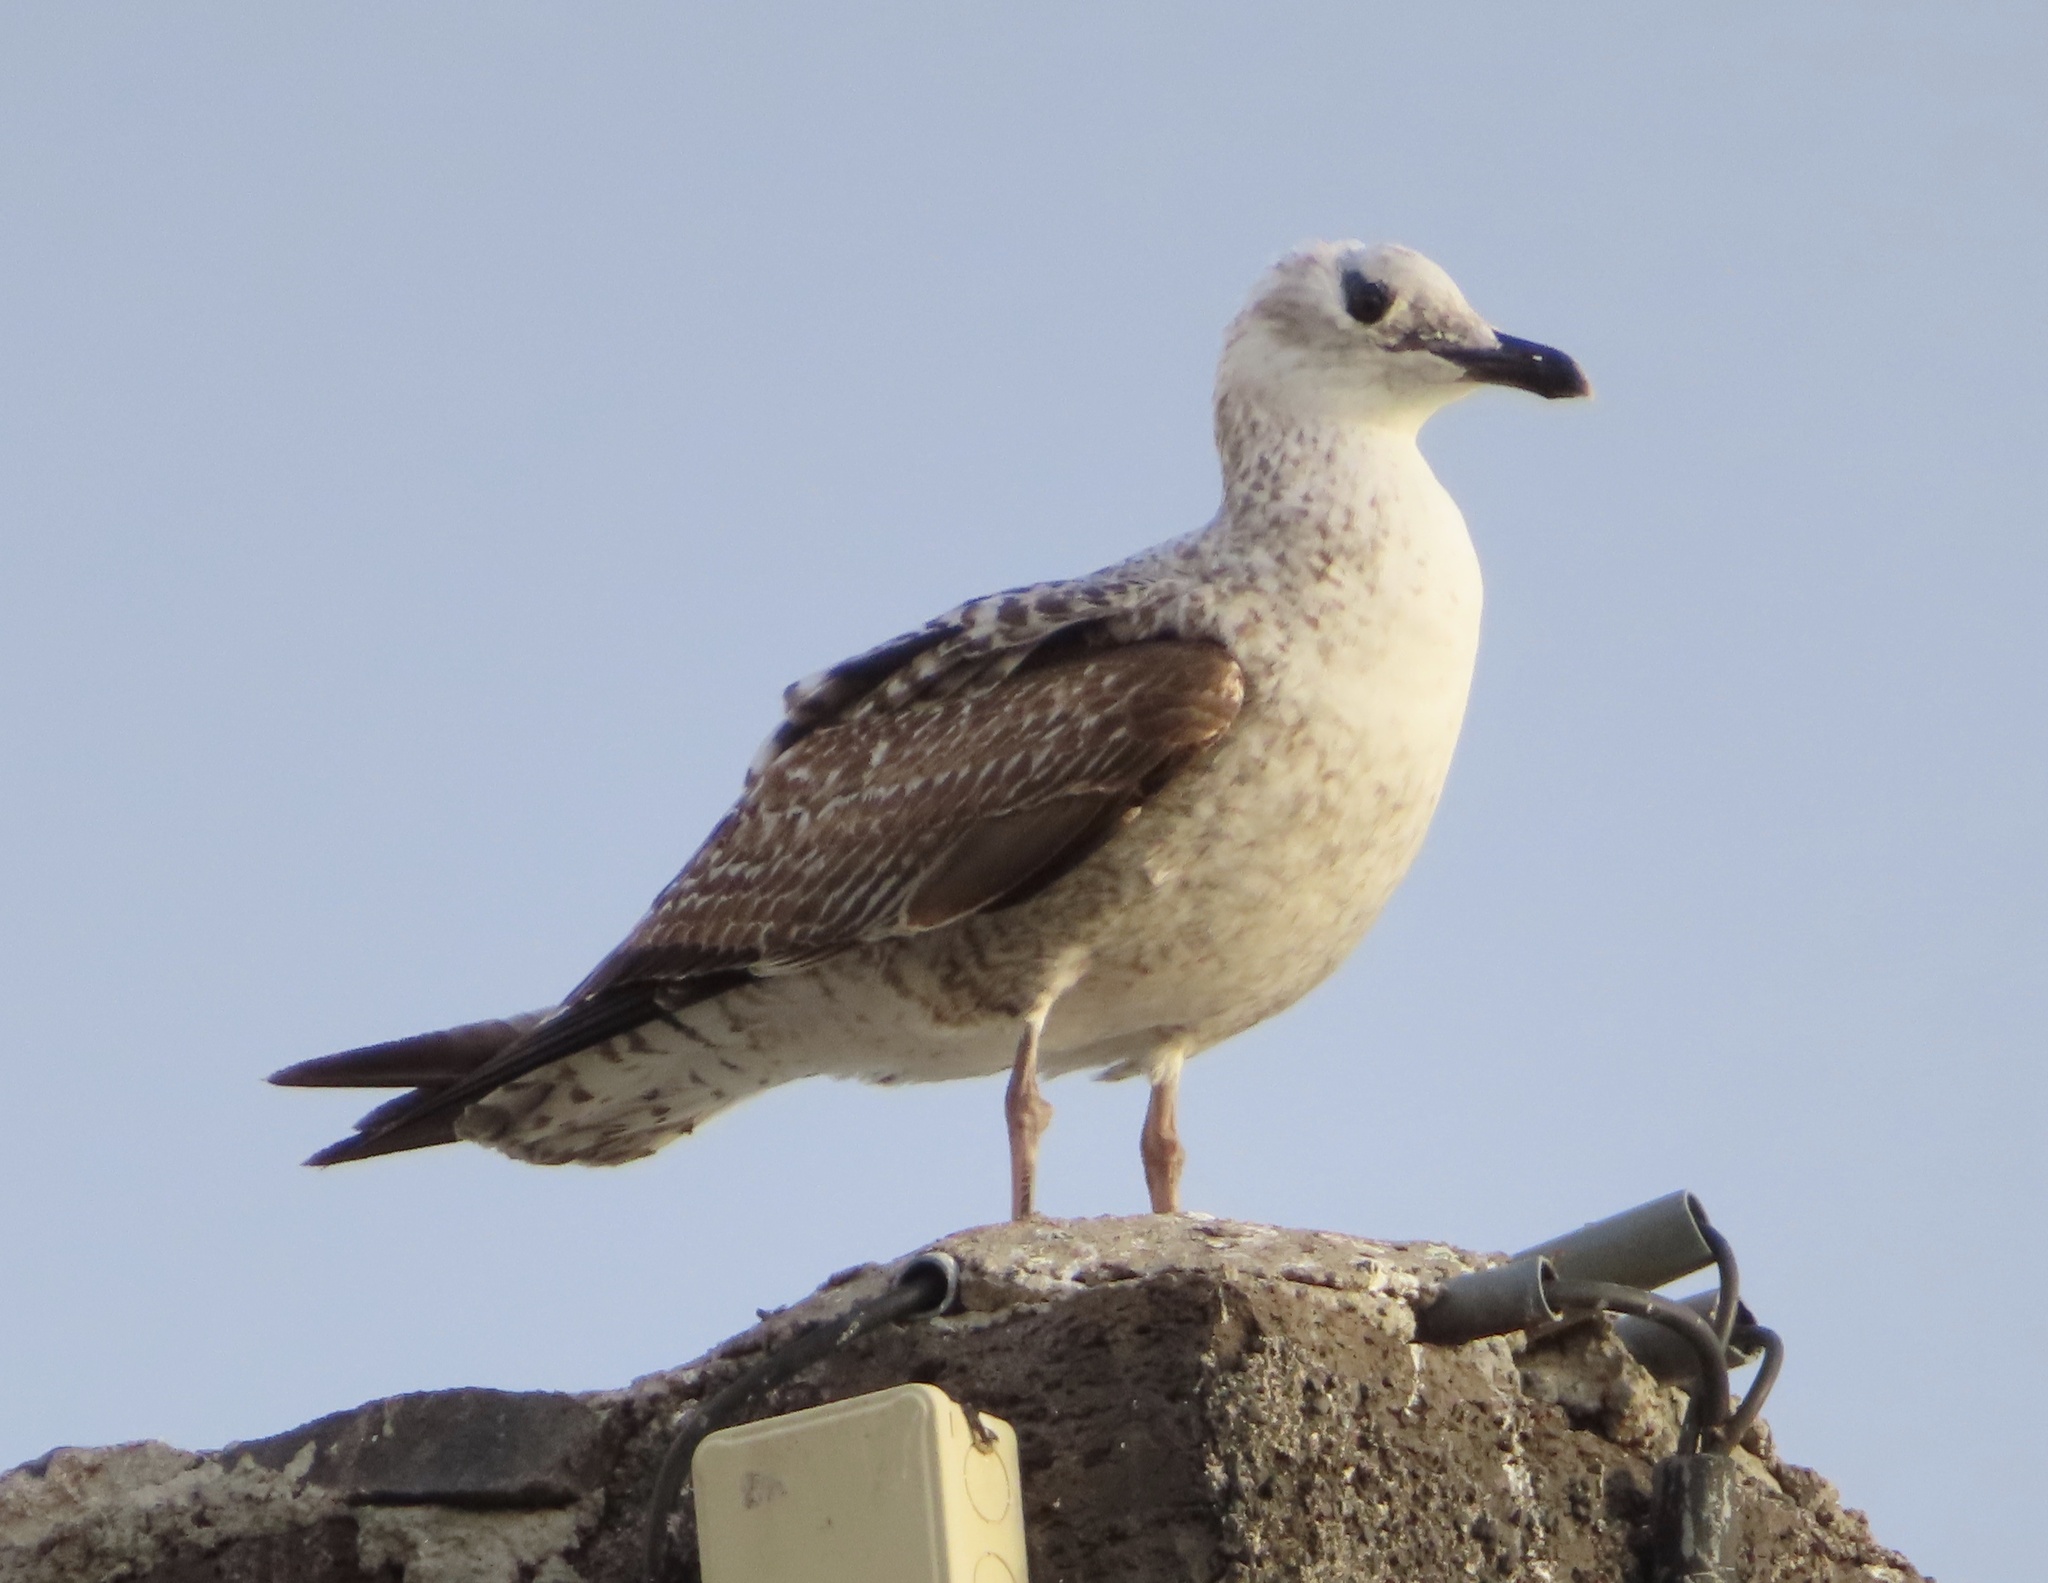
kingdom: Animalia
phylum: Chordata
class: Aves
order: Charadriiformes
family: Laridae
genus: Larus
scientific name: Larus michahellis
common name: Yellow-legged gull
